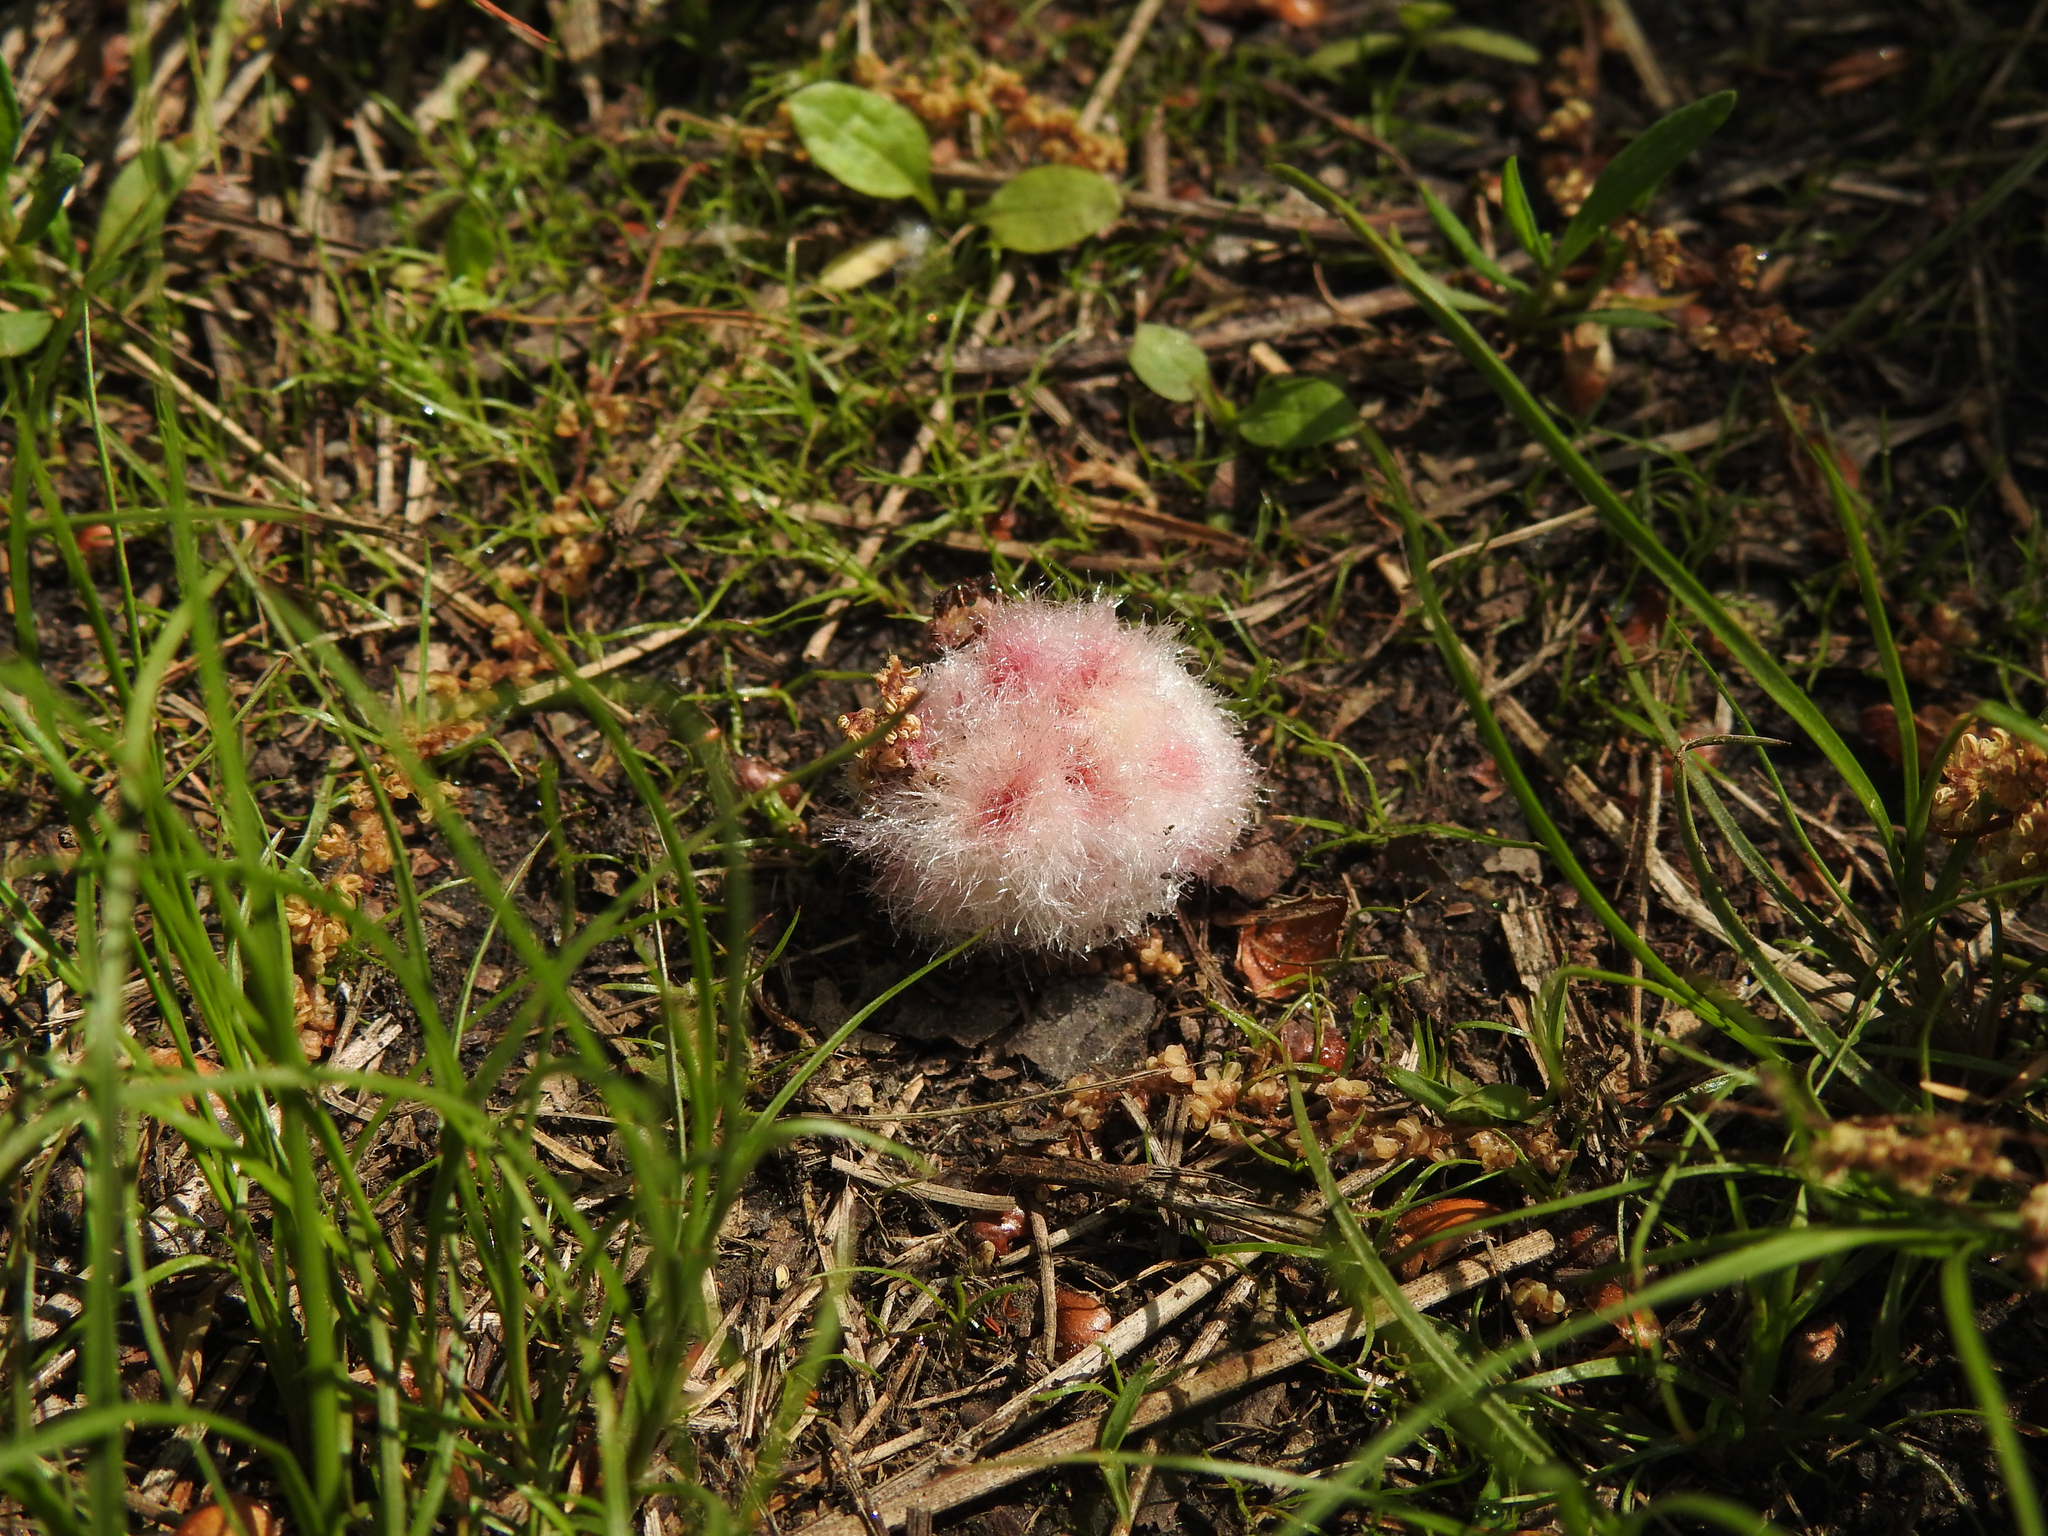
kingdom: Animalia
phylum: Arthropoda
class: Insecta
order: Hymenoptera
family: Cynipidae
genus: Callirhytis
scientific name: Callirhytis
